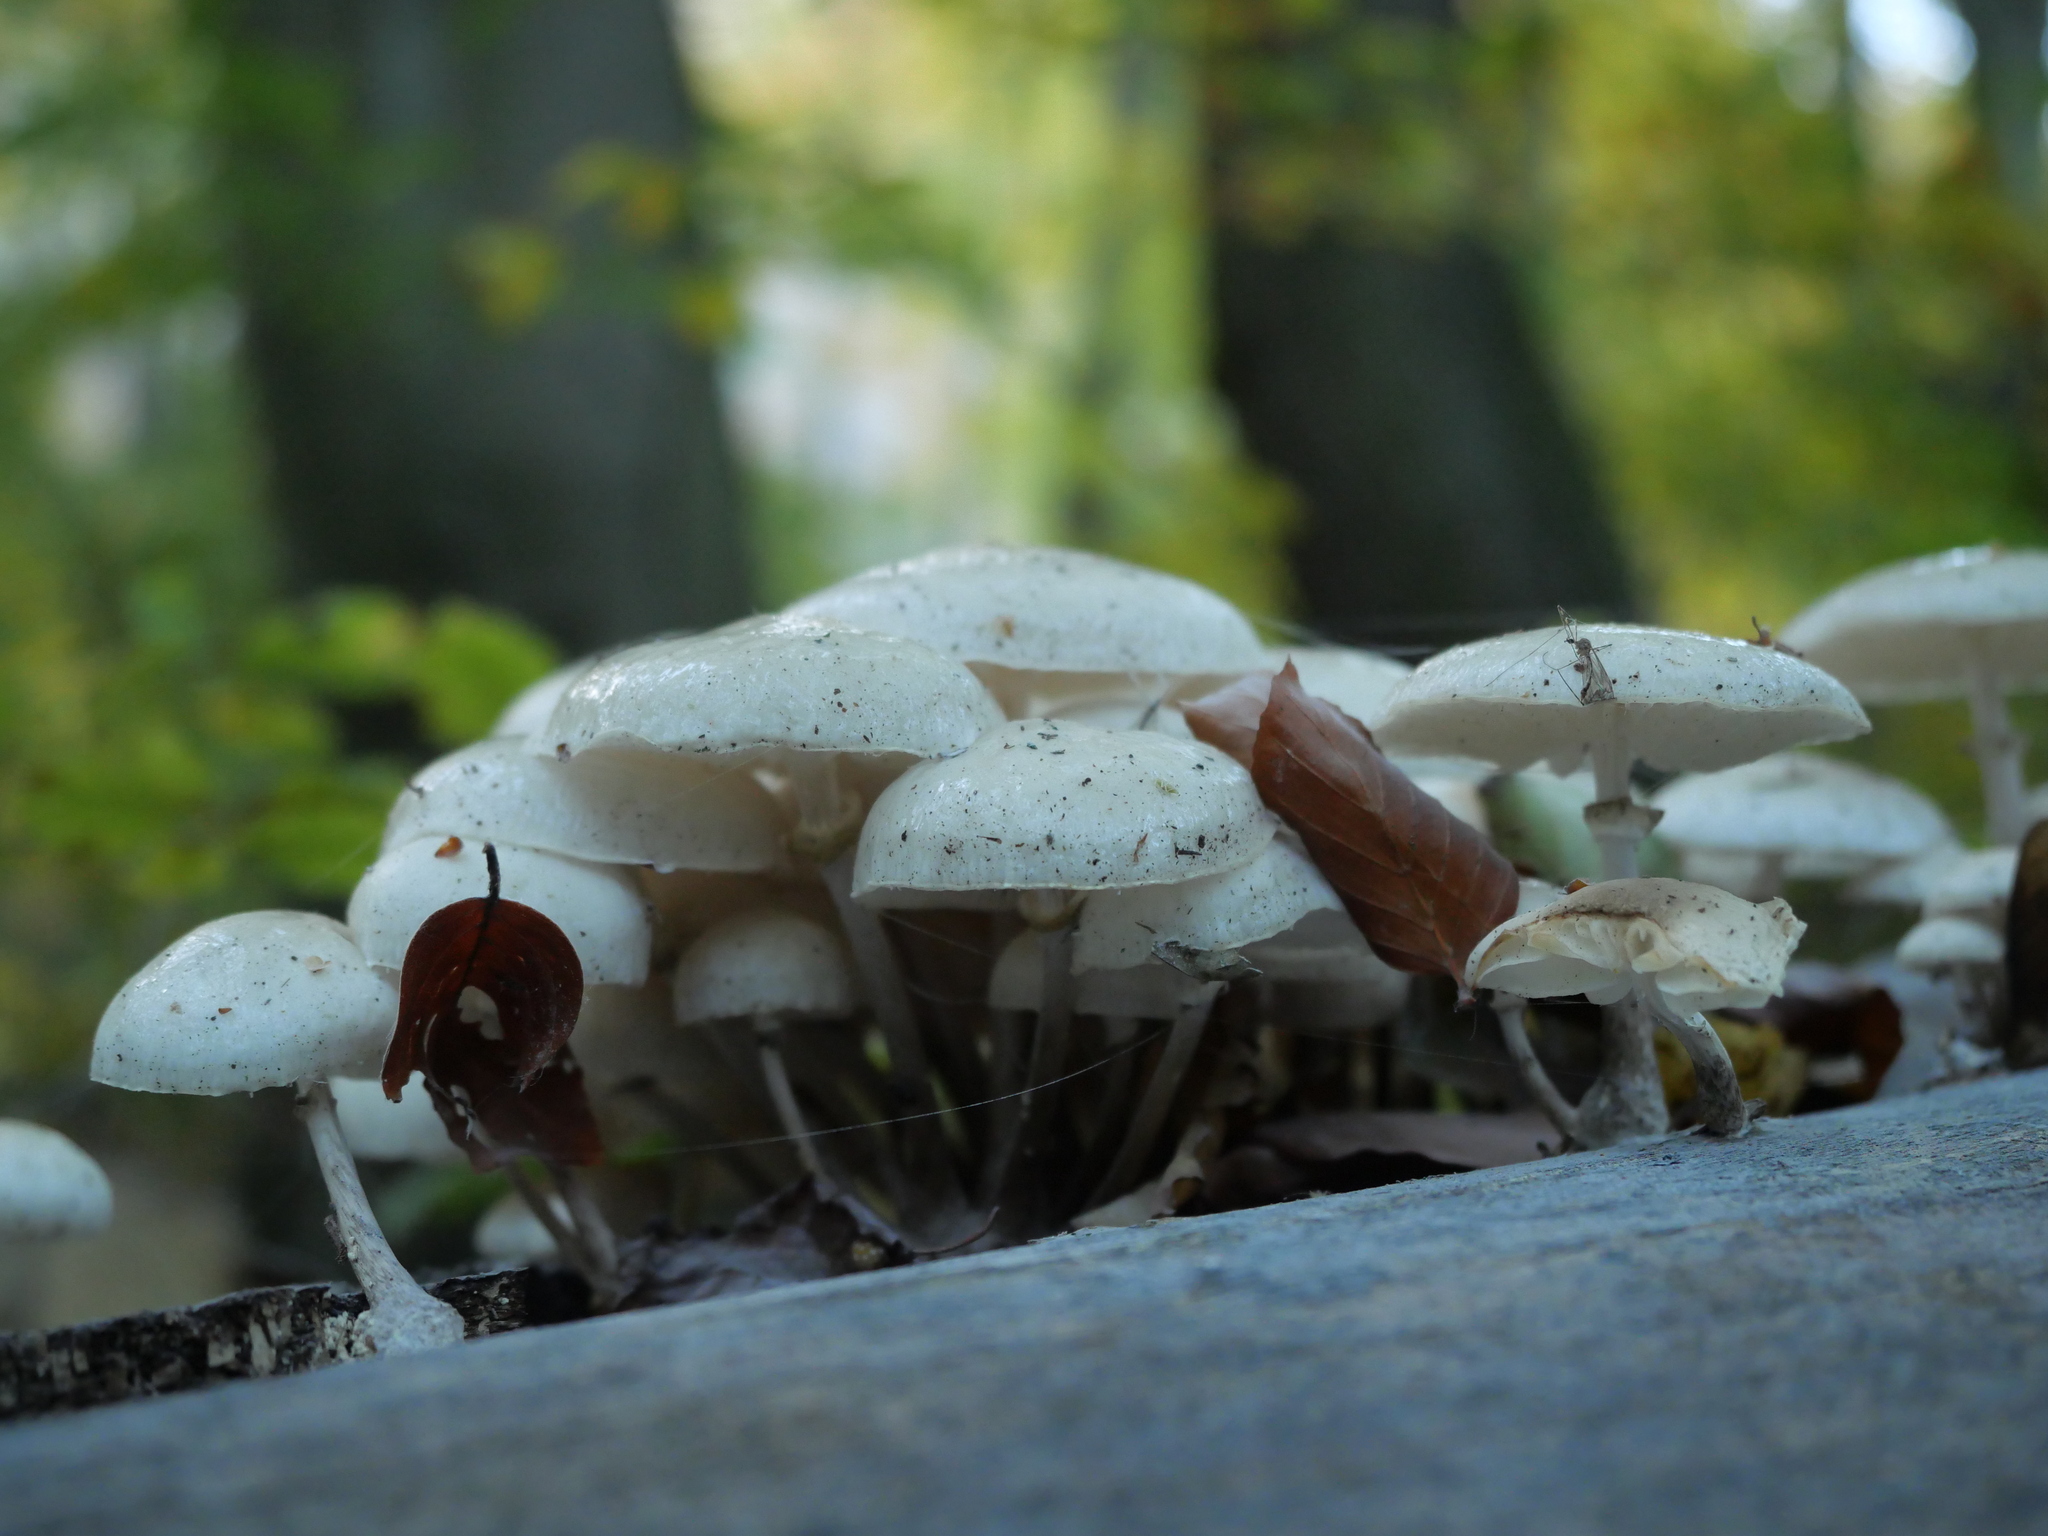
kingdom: Fungi
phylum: Basidiomycota
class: Agaricomycetes
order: Agaricales
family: Physalacriaceae
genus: Mucidula
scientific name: Mucidula mucida
